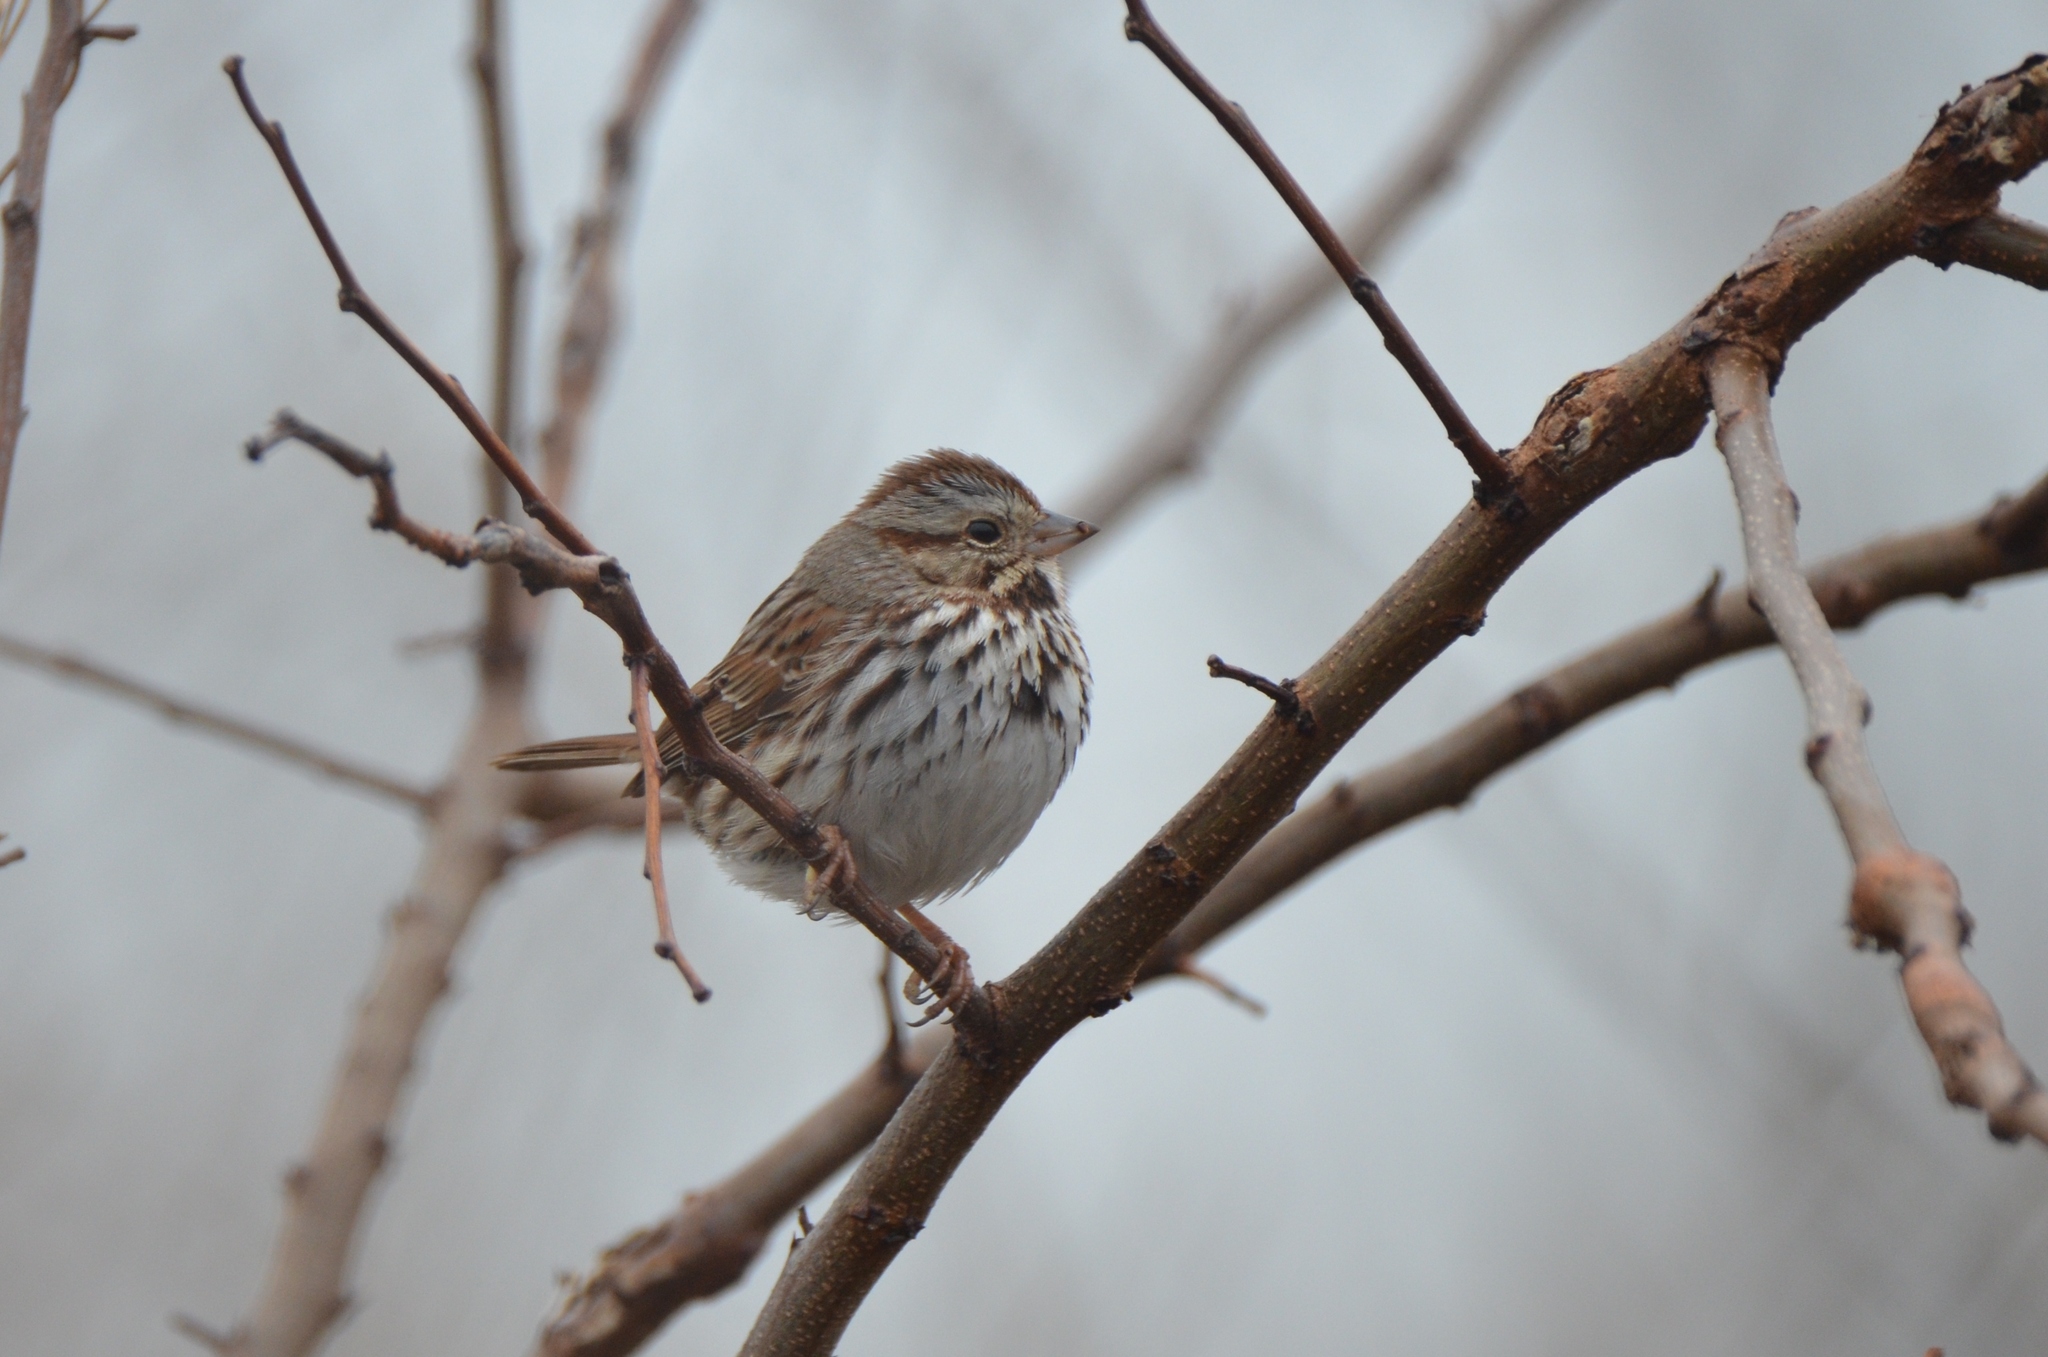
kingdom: Animalia
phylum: Chordata
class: Aves
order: Passeriformes
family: Passerellidae
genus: Melospiza
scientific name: Melospiza melodia
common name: Song sparrow
